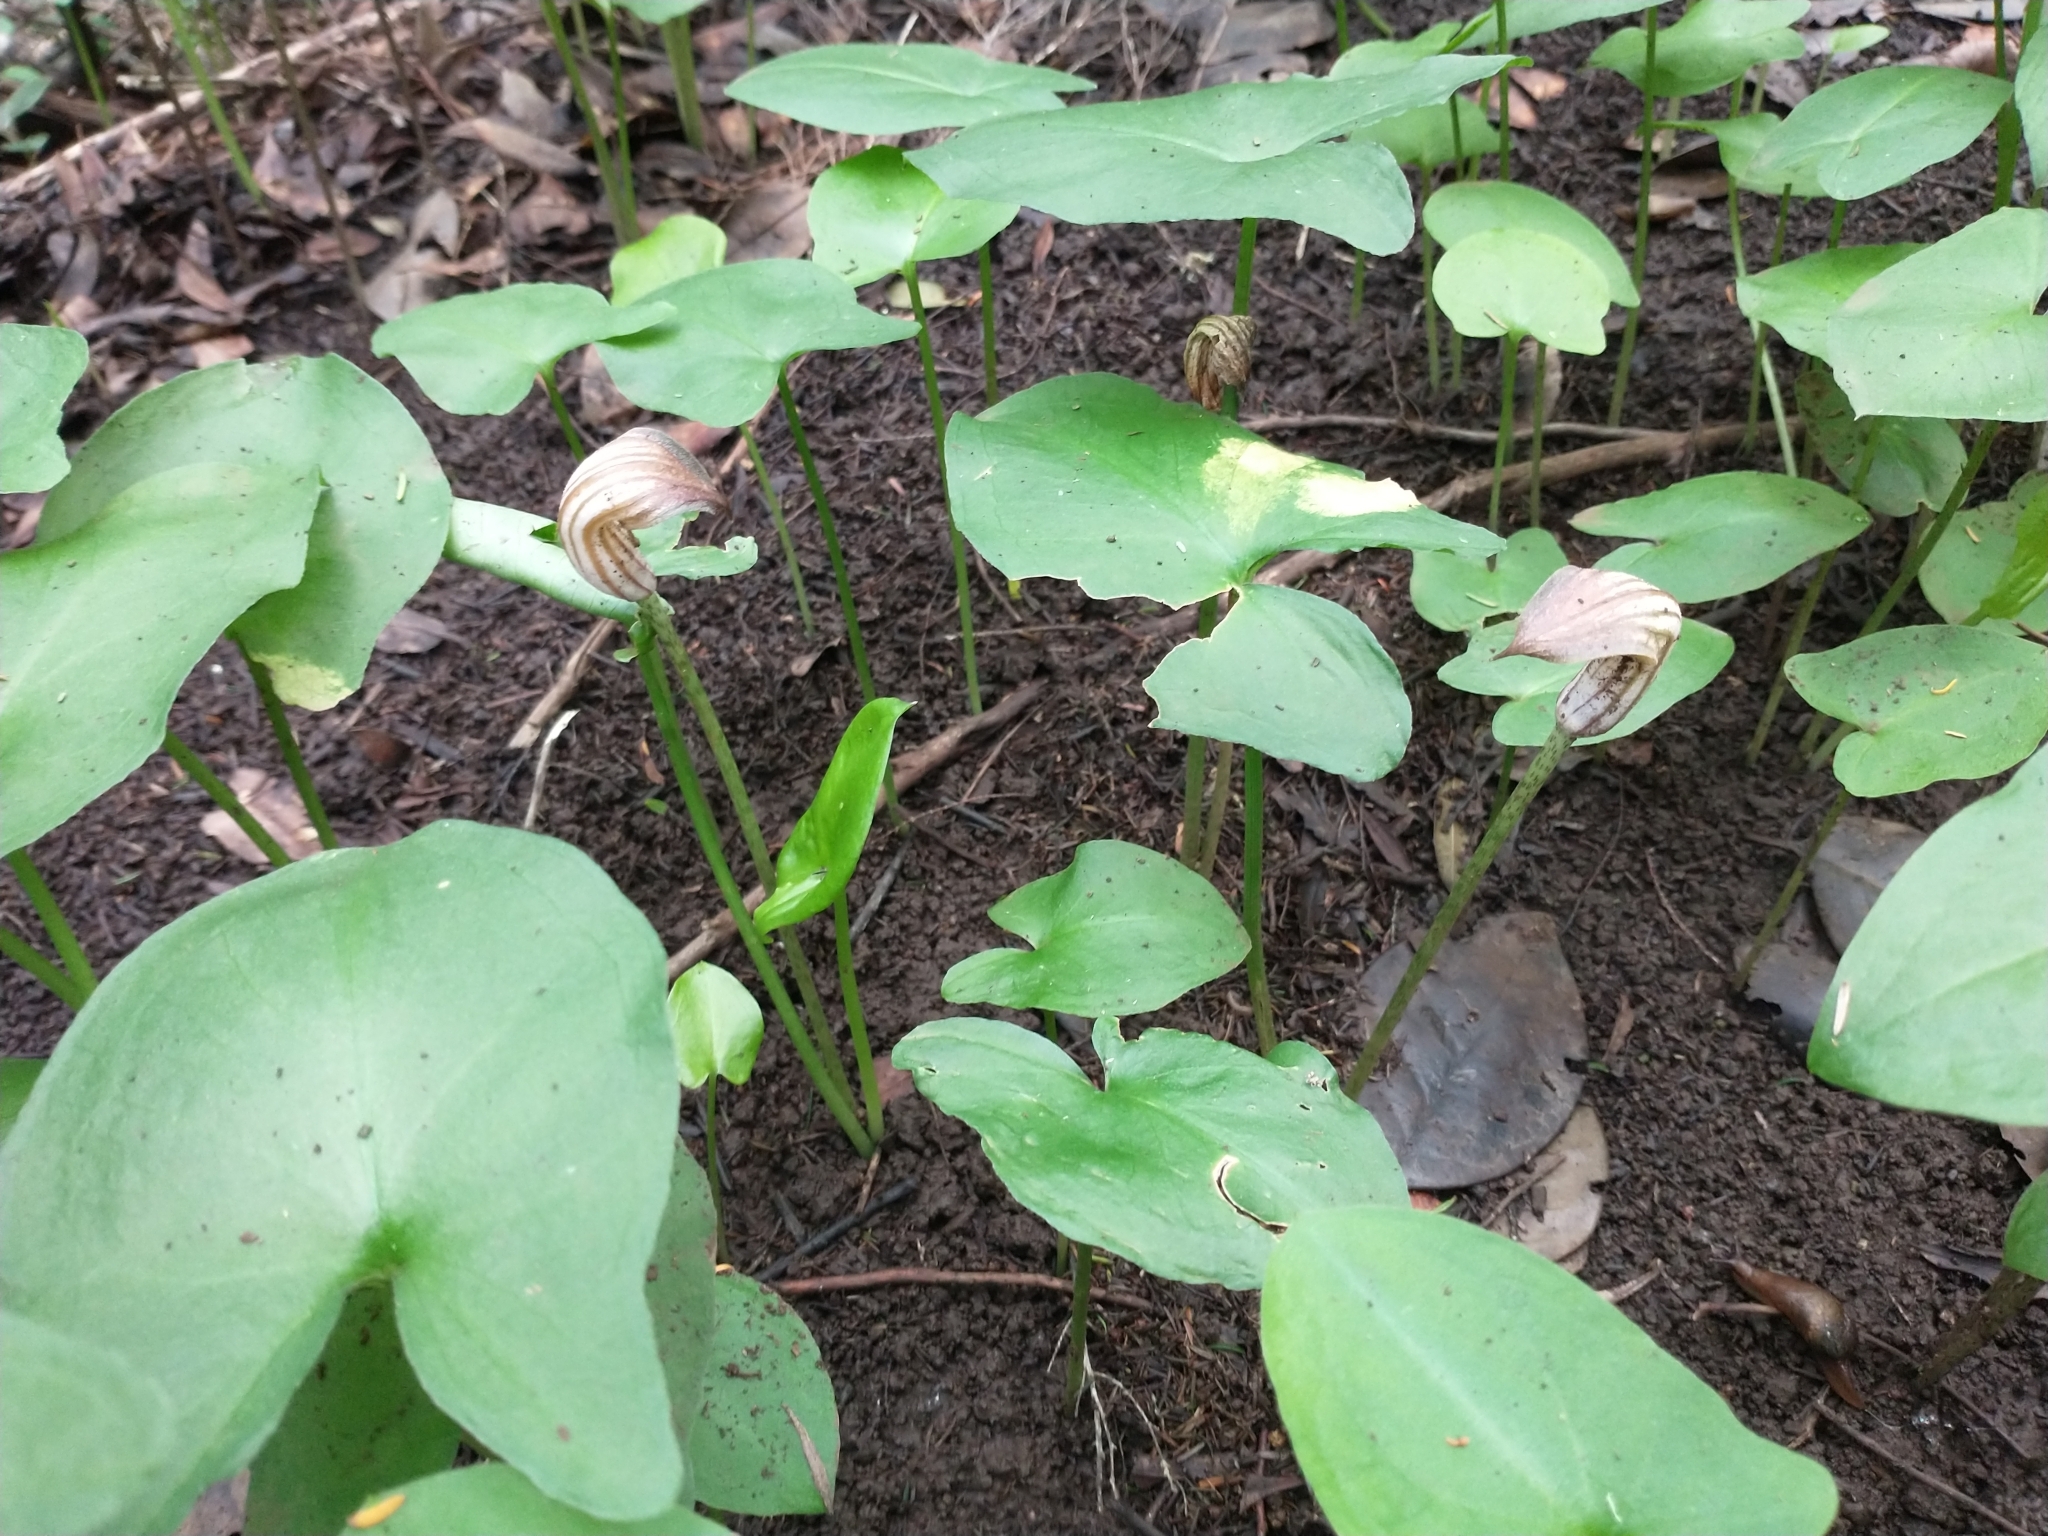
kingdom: Plantae
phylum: Tracheophyta
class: Liliopsida
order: Alismatales
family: Araceae
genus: Arisarum
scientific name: Arisarum simorrhinum
